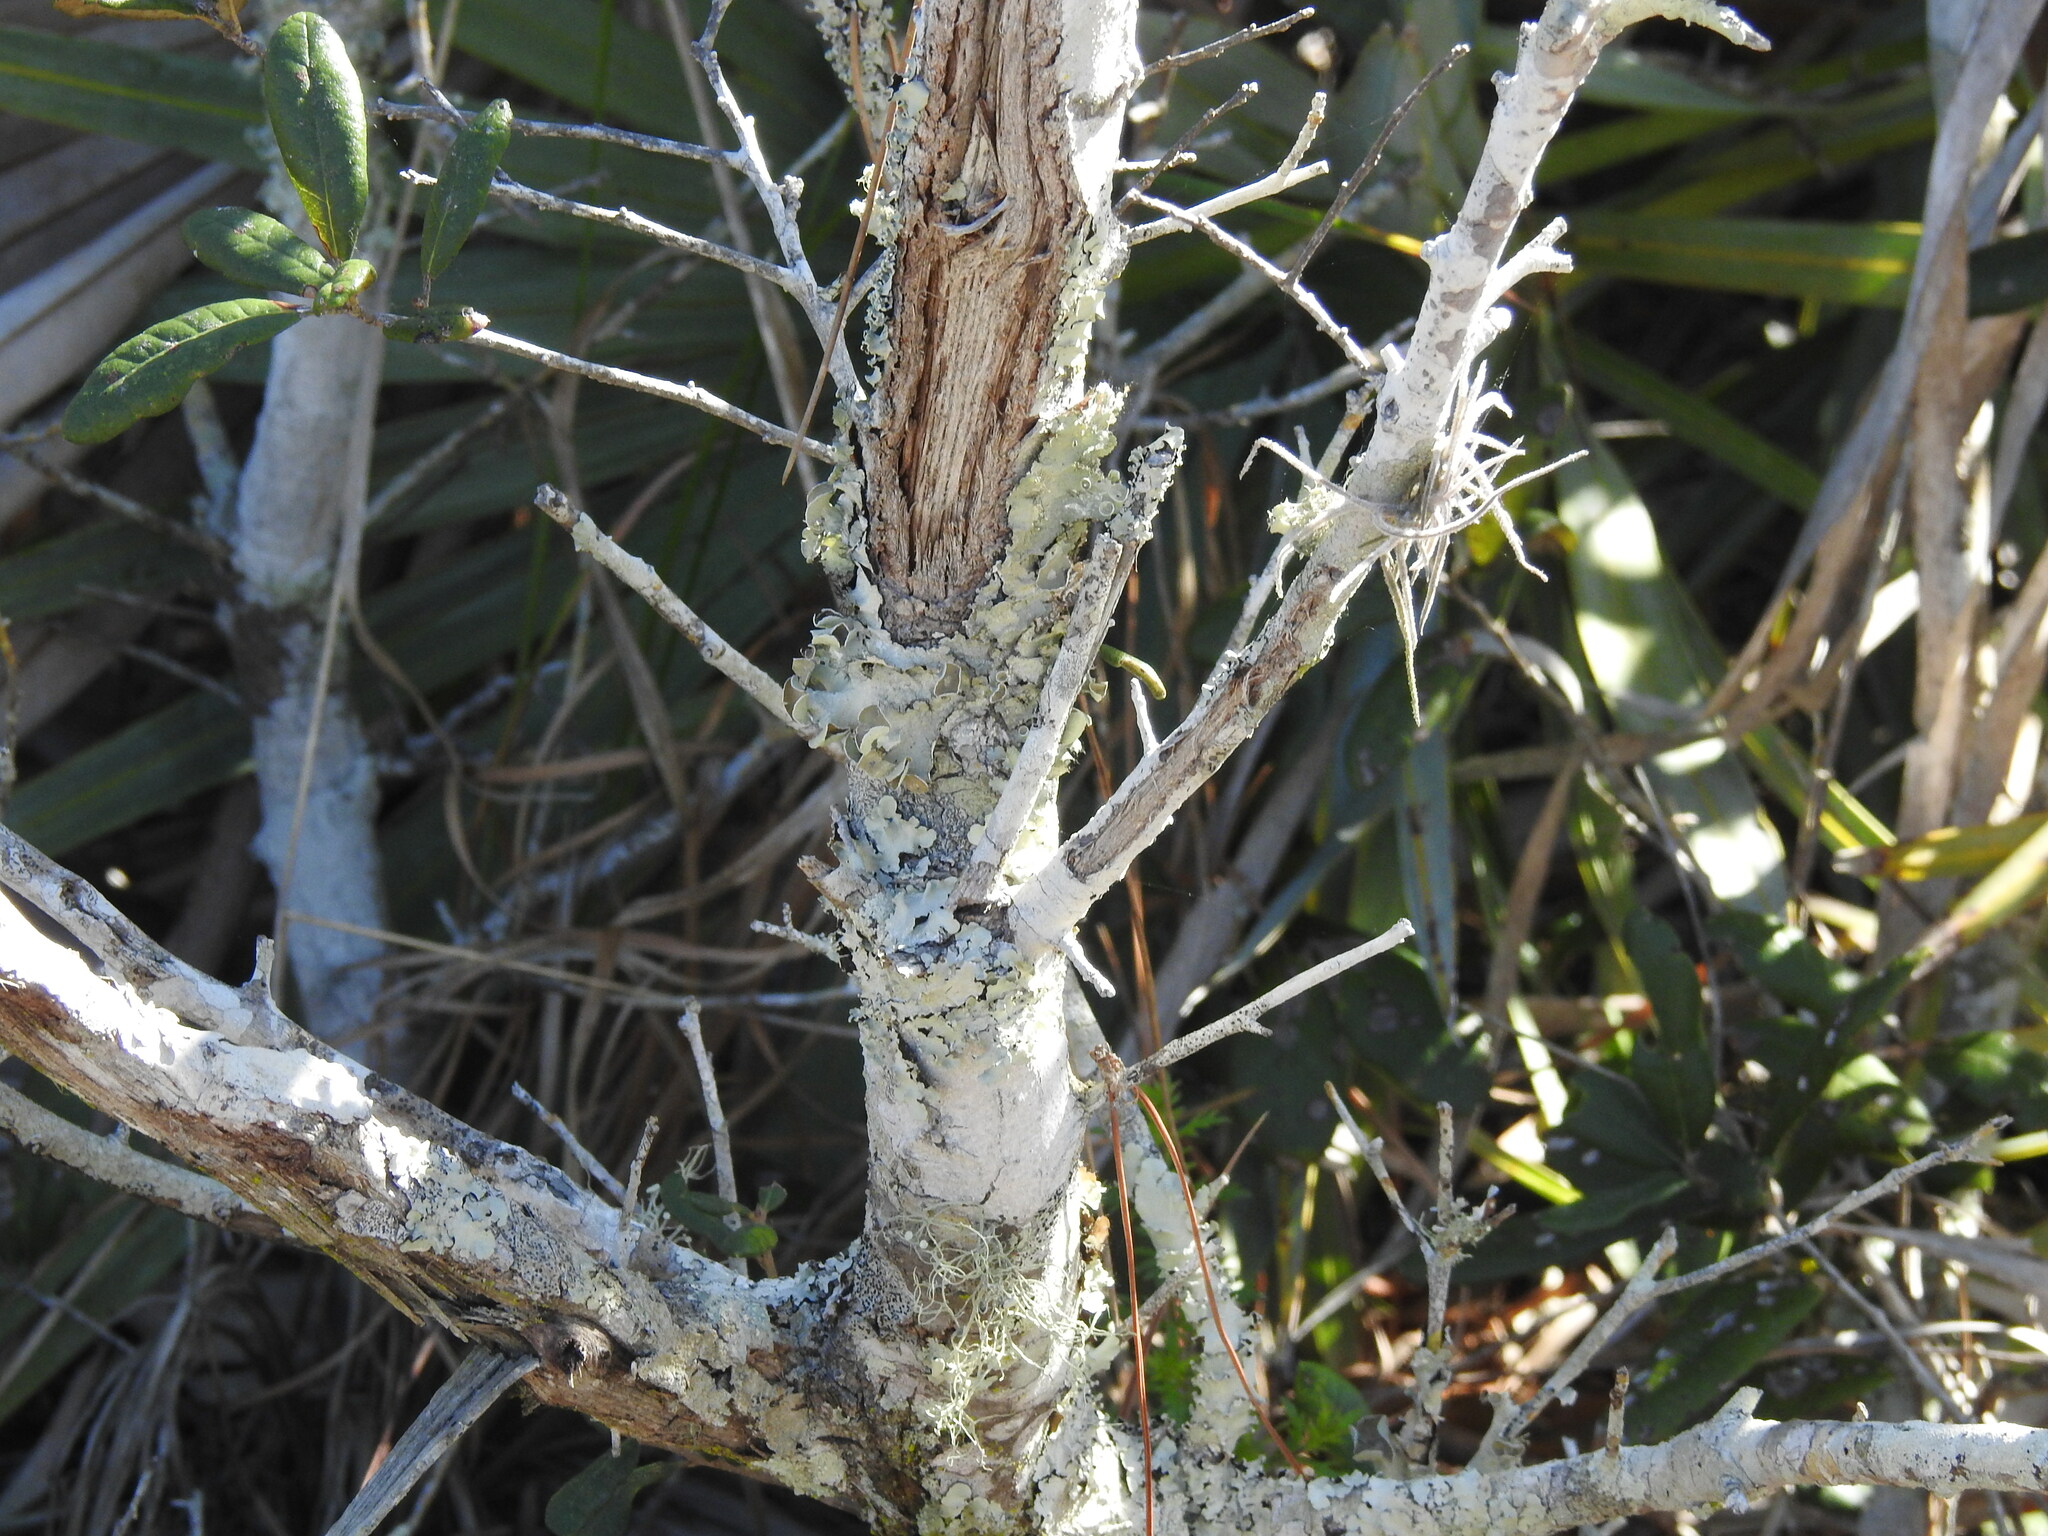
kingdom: Plantae
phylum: Tracheophyta
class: Magnoliopsida
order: Fagales
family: Fagaceae
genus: Quercus
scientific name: Quercus geminata
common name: Sand live oak
